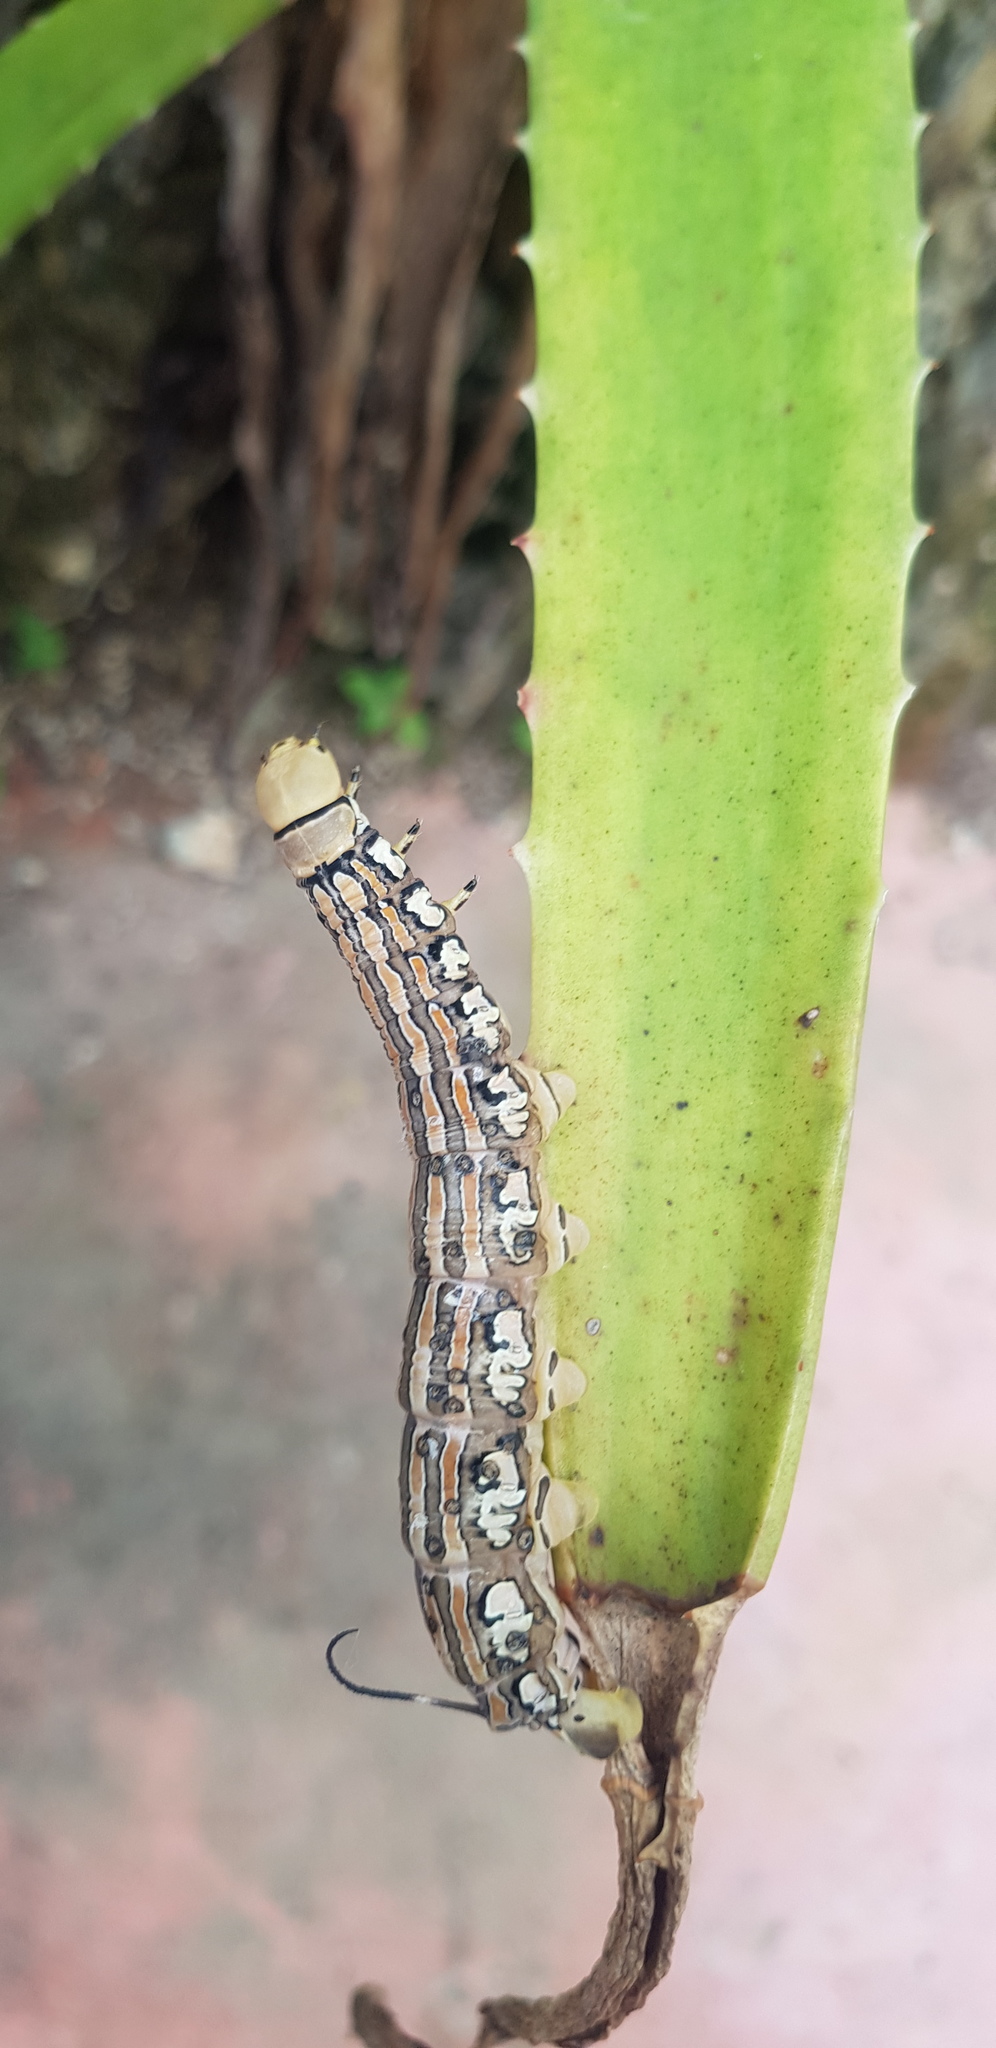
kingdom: Animalia
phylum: Arthropoda
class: Insecta
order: Lepidoptera
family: Sphingidae
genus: Isognathus
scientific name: Isognathus rimosa
